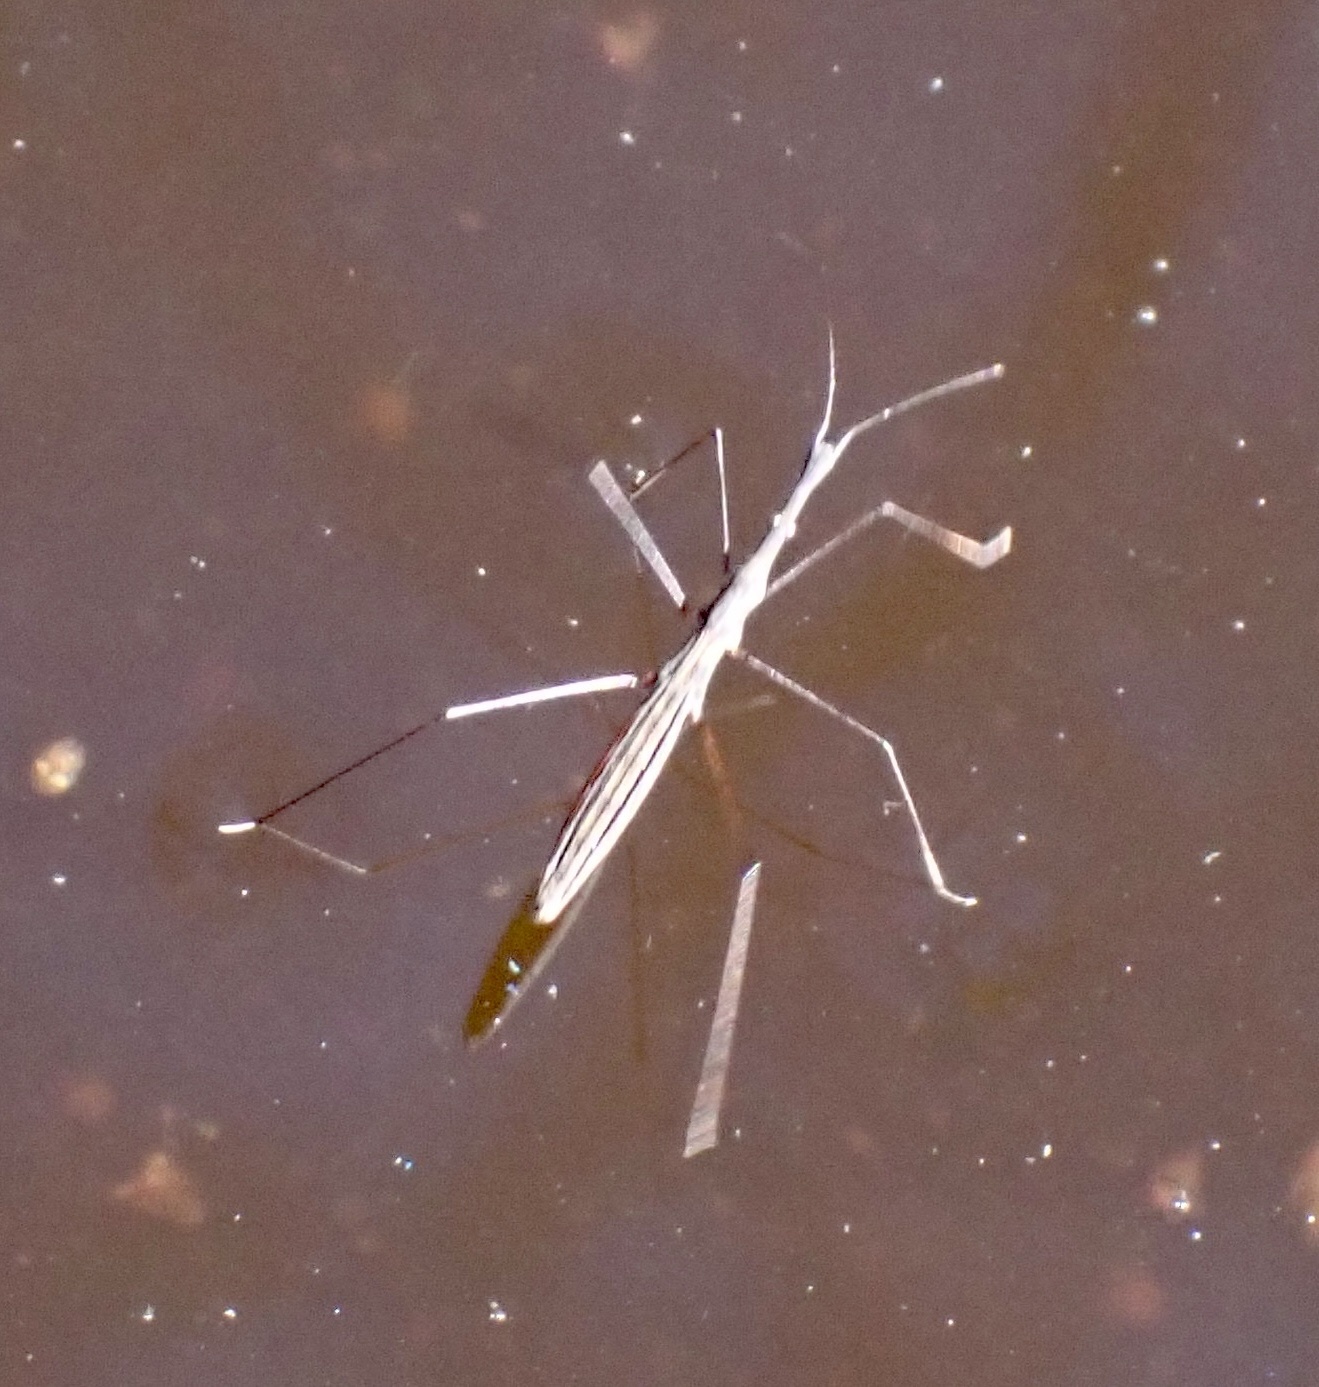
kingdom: Animalia
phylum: Arthropoda
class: Insecta
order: Hemiptera
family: Hydrometridae
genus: Hydrometra
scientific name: Hydrometra stagnorum
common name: Water measurer
